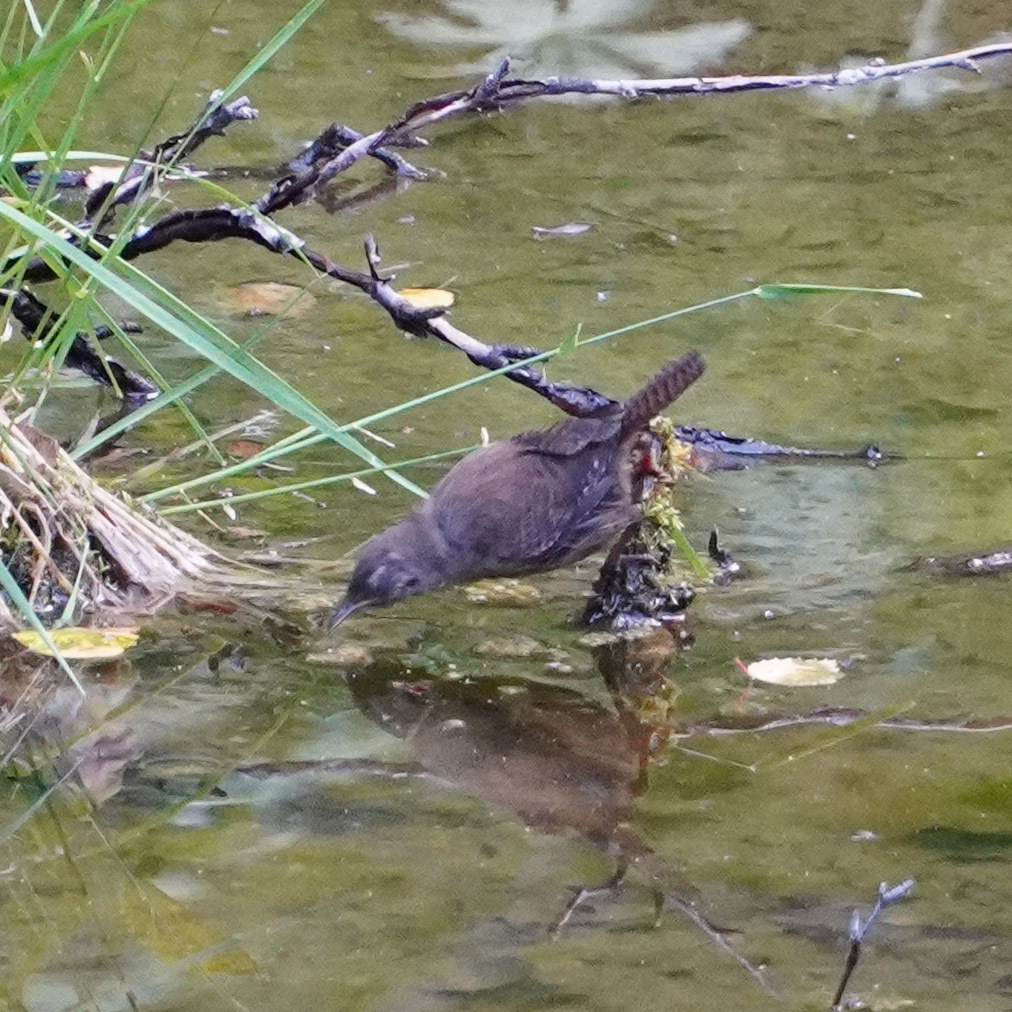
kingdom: Animalia
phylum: Chordata
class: Aves
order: Passeriformes
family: Troglodytidae
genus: Troglodytes
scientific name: Troglodytes troglodytes
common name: Eurasian wren
